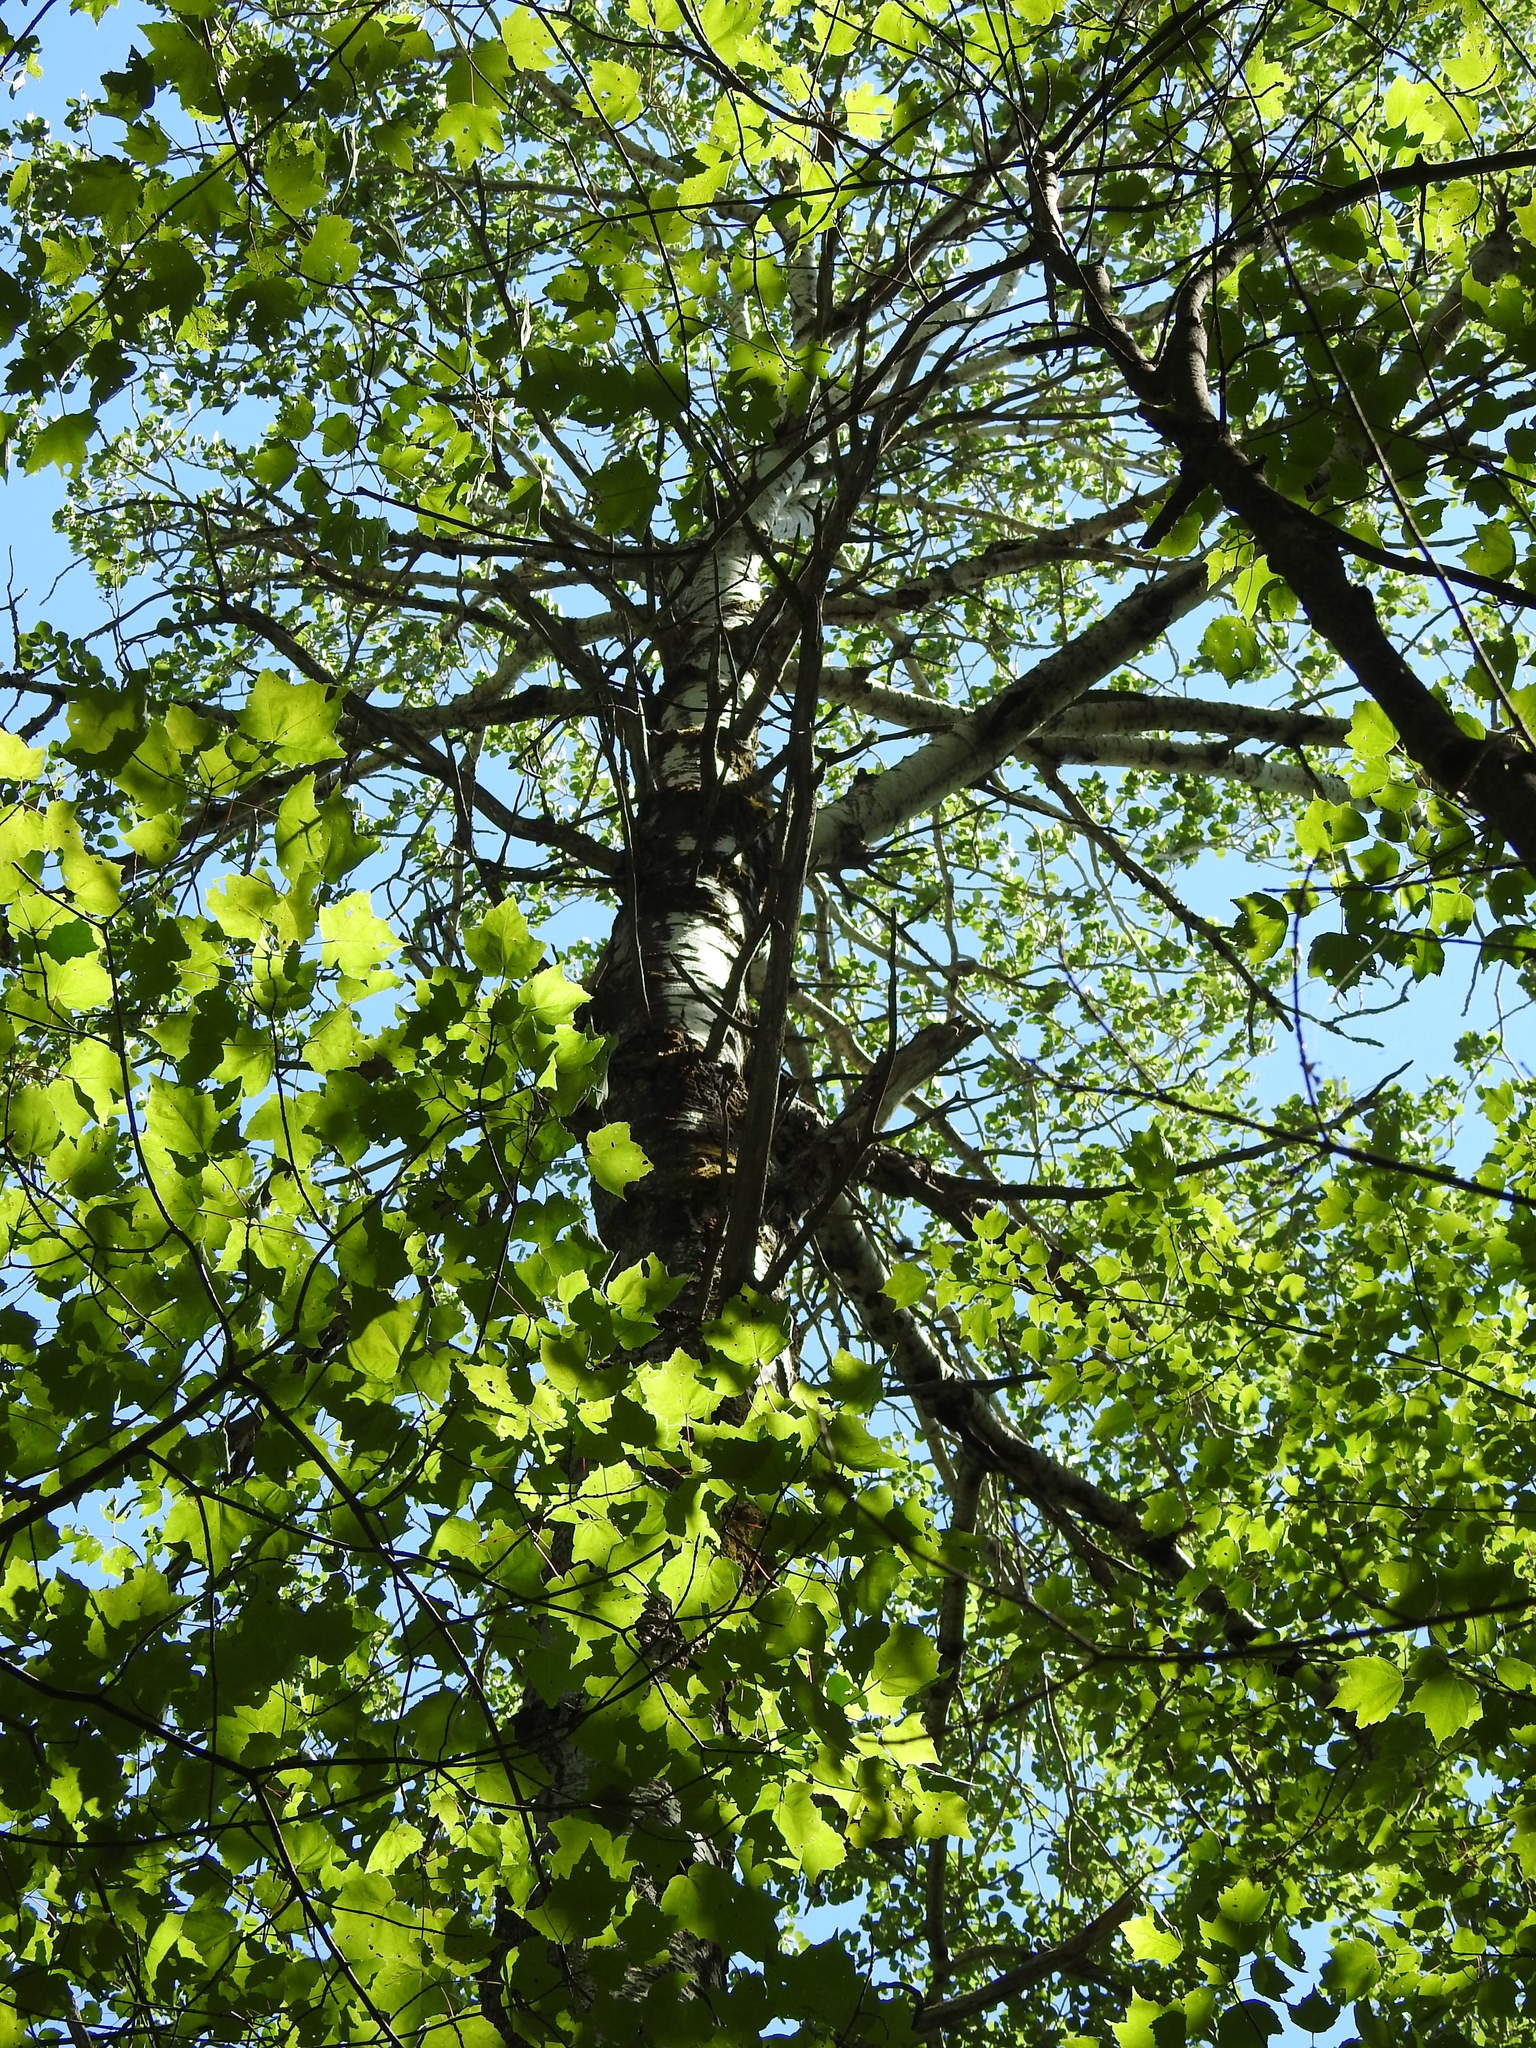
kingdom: Plantae
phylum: Tracheophyta
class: Magnoliopsida
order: Malpighiales
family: Salicaceae
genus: Populus
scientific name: Populus tremuloides
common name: Quaking aspen
